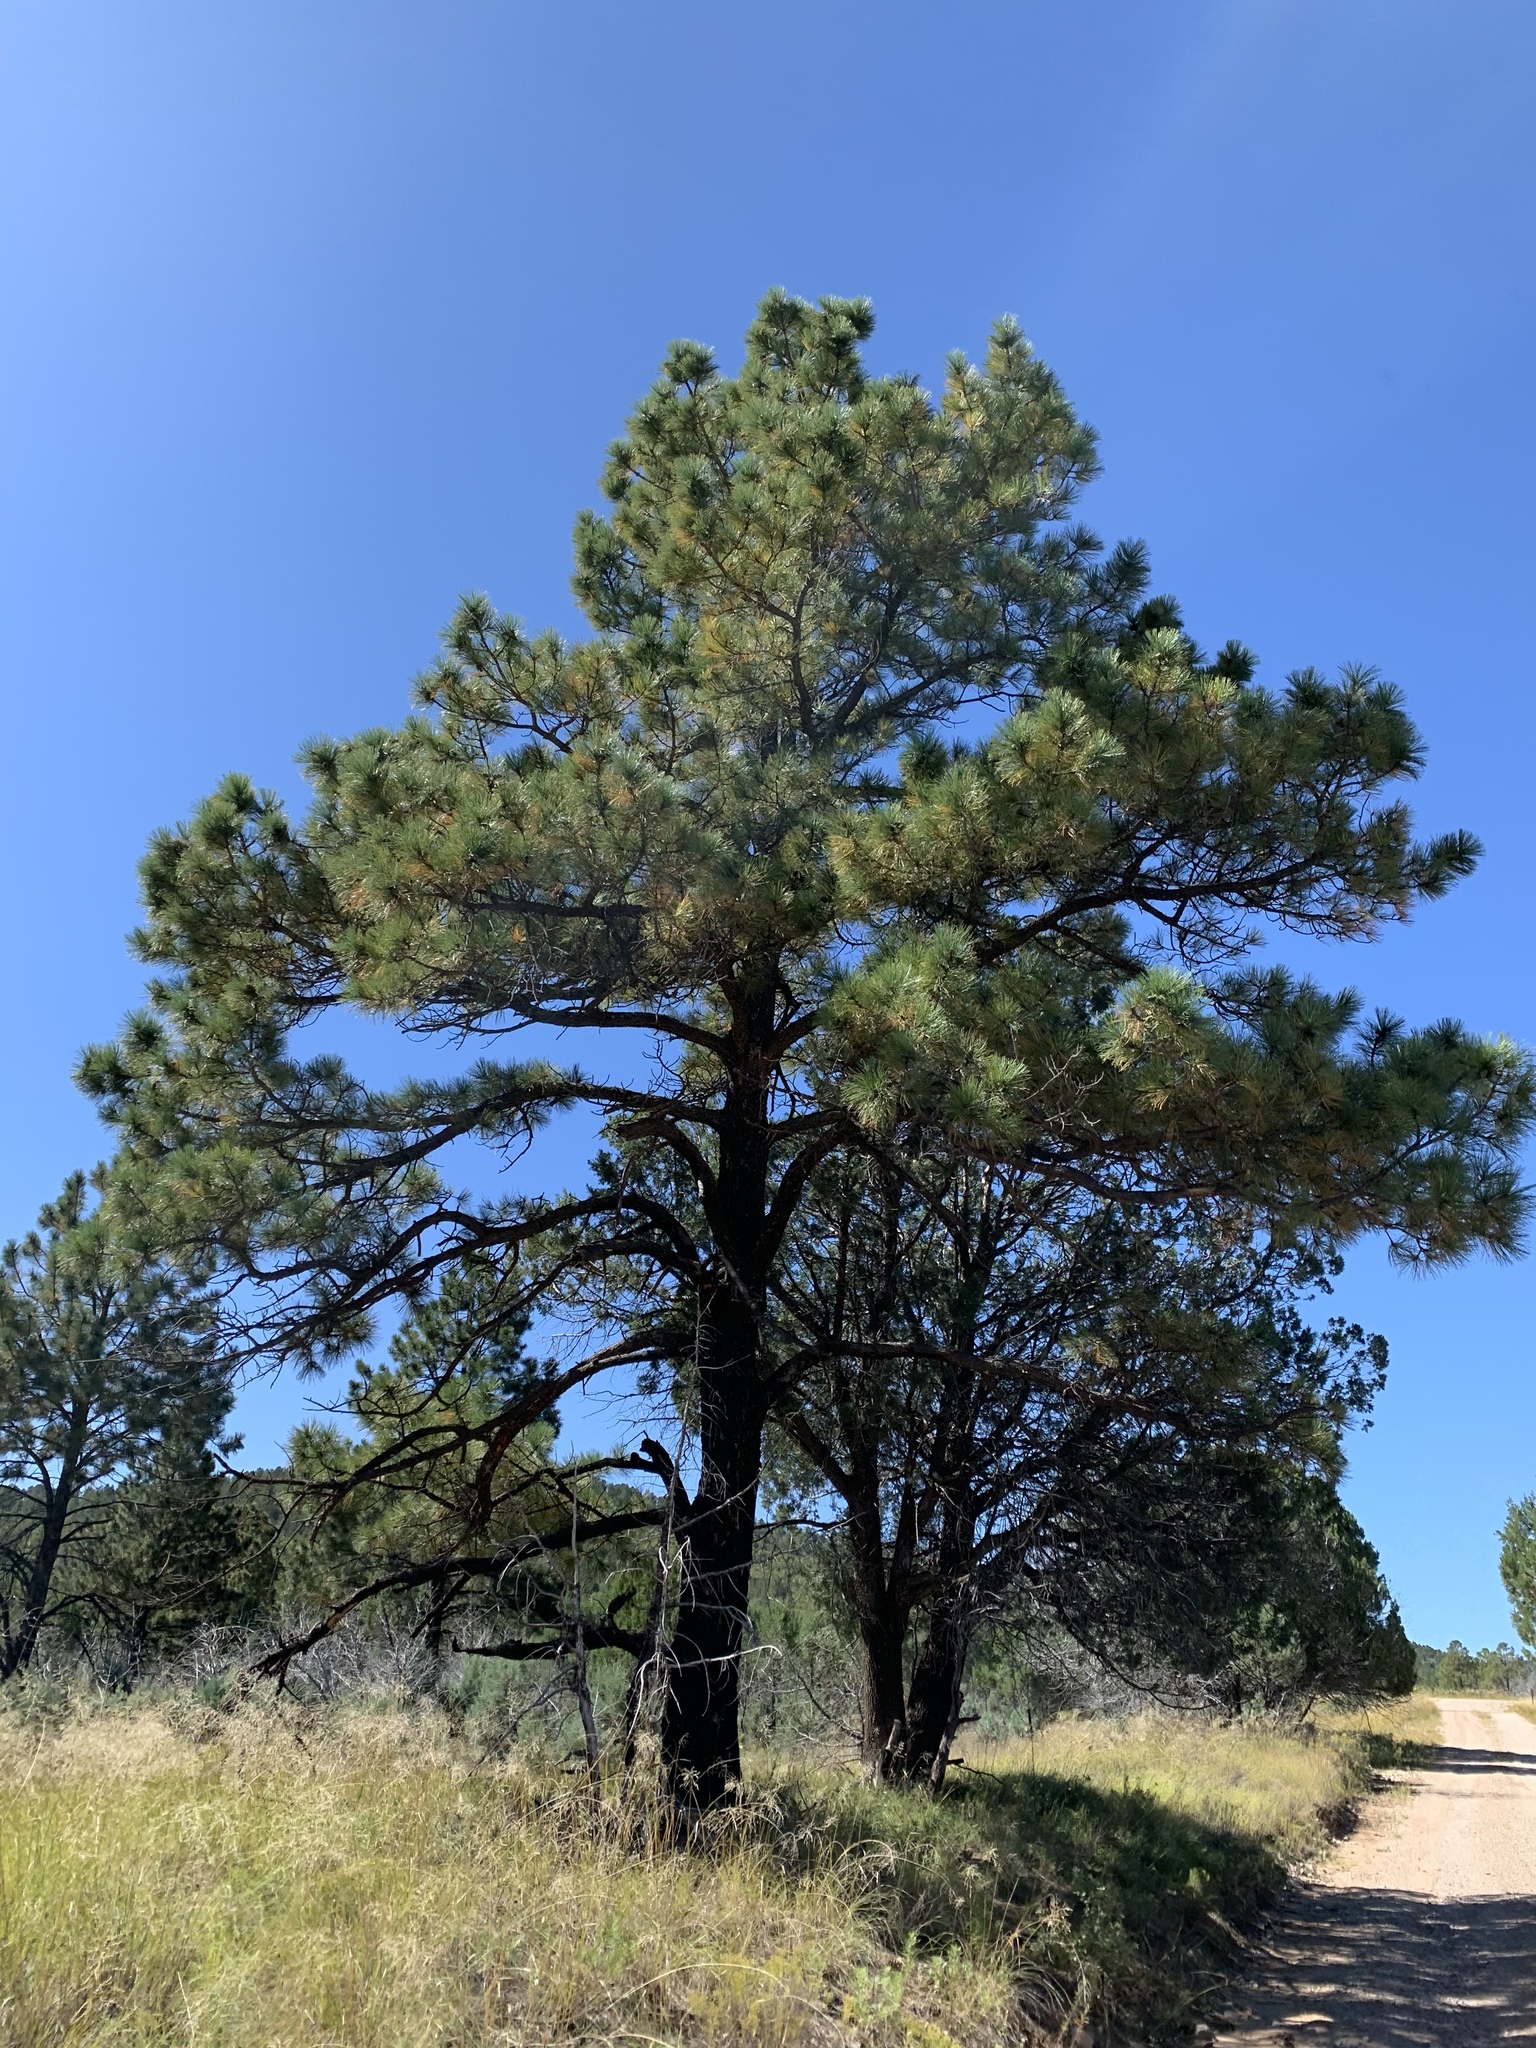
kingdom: Plantae
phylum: Tracheophyta
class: Pinopsida
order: Pinales
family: Pinaceae
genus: Pinus
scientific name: Pinus ponderosa
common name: Western yellow-pine
